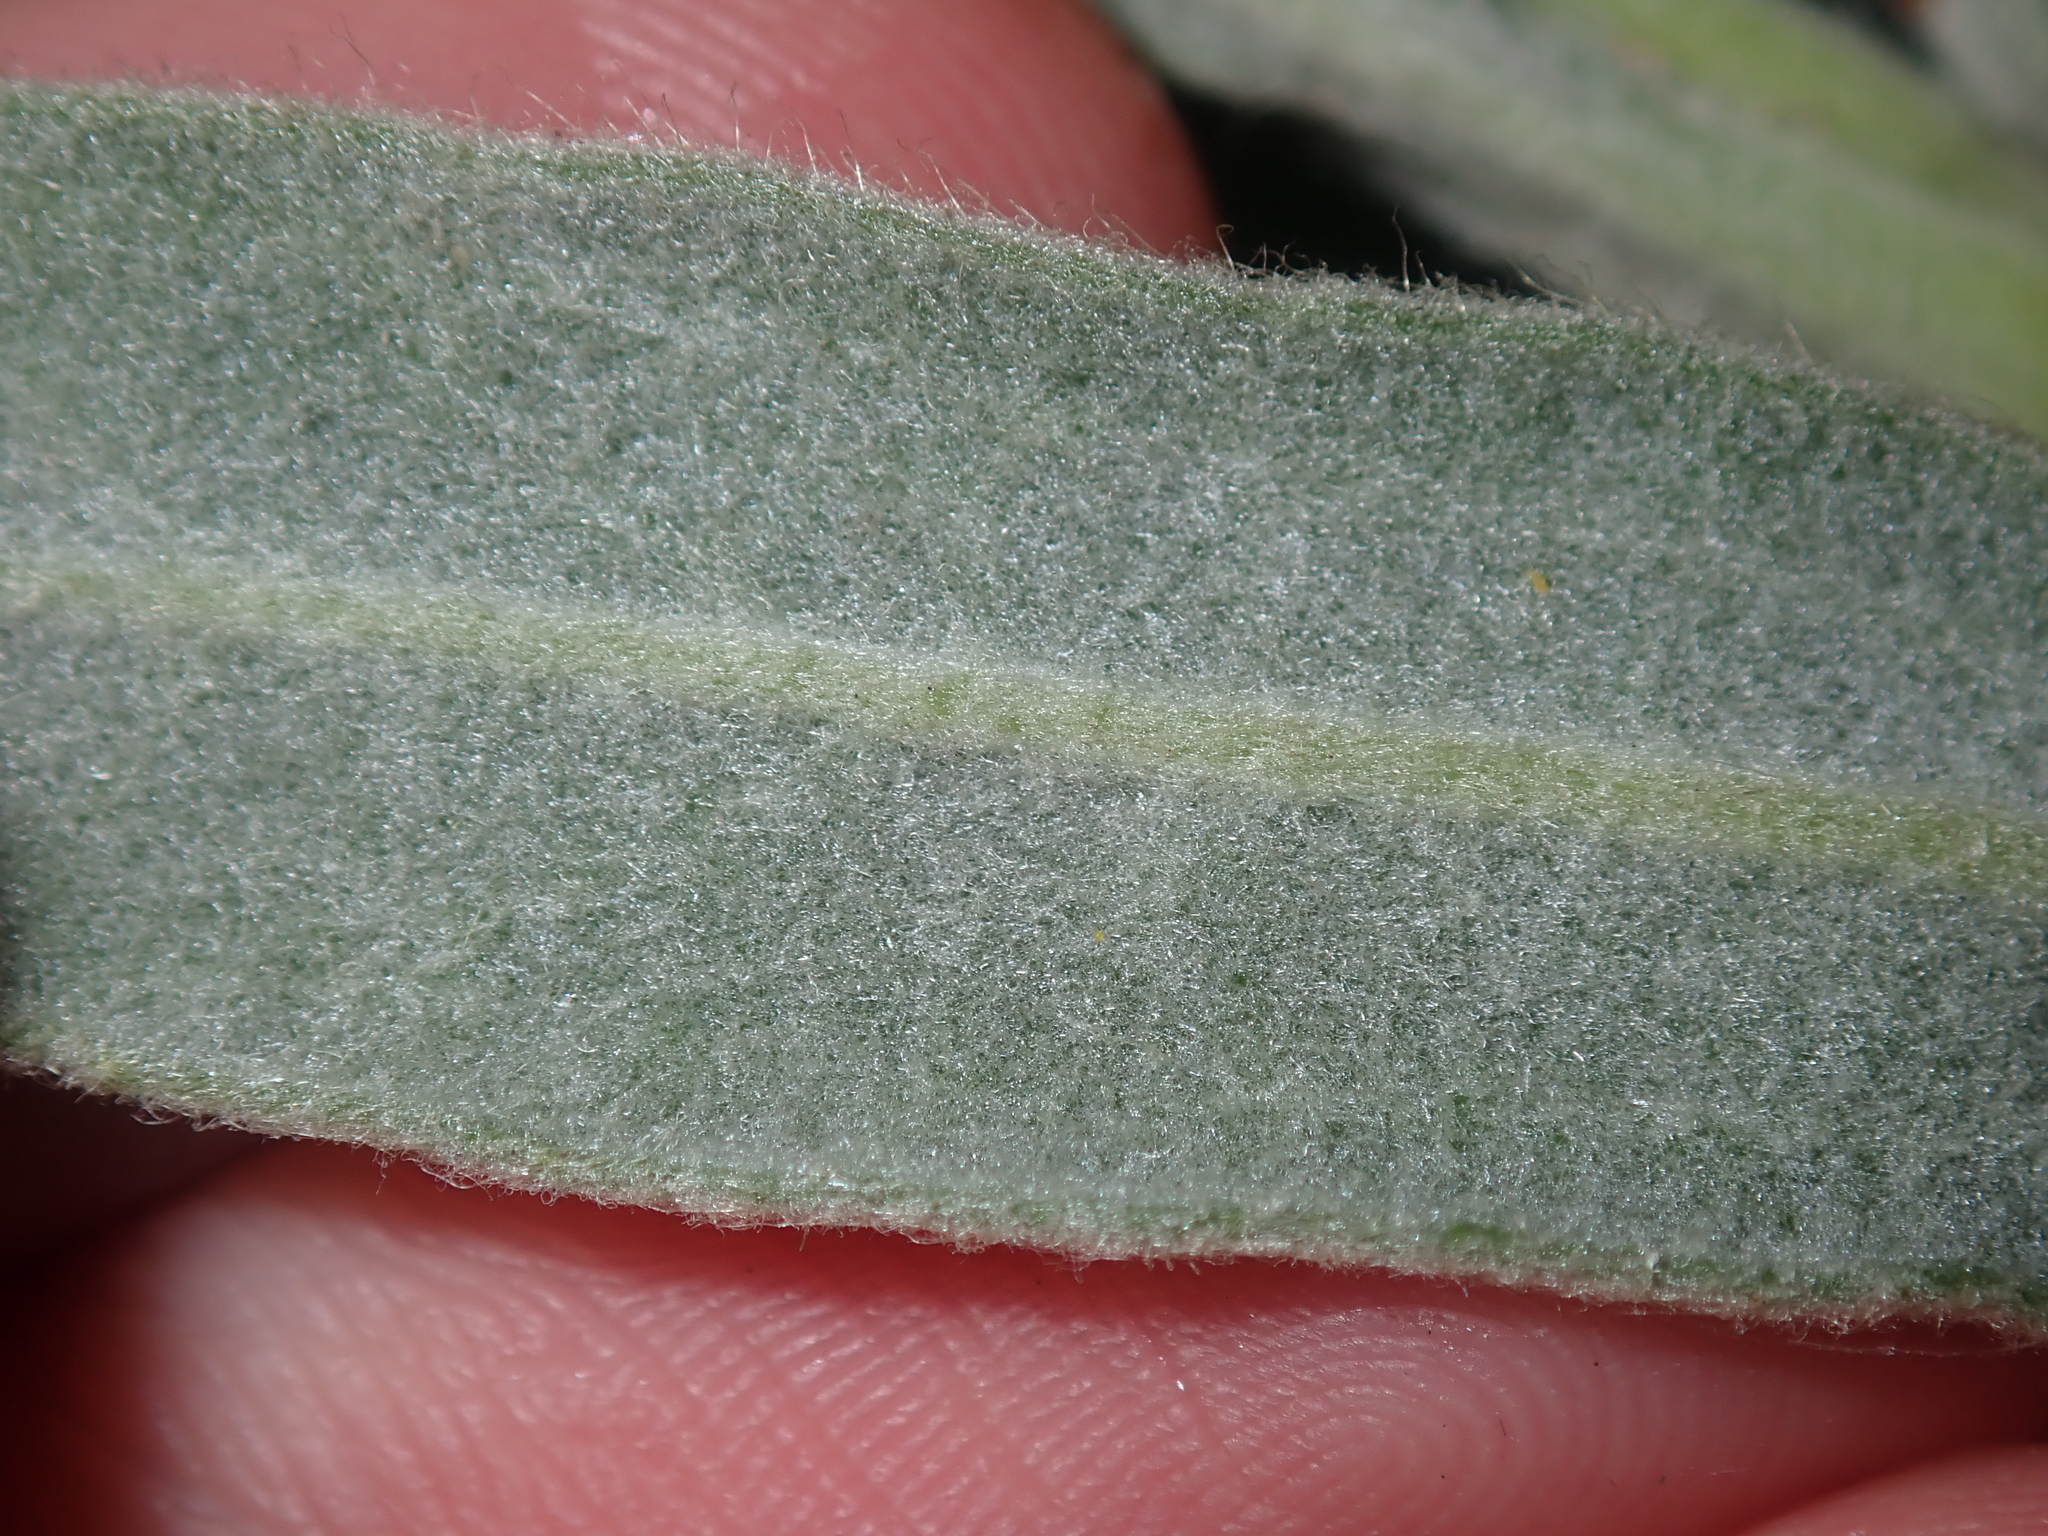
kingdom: Plantae
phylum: Tracheophyta
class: Magnoliopsida
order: Asterales
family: Goodeniaceae
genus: Scaevola
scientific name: Scaevola canescens
